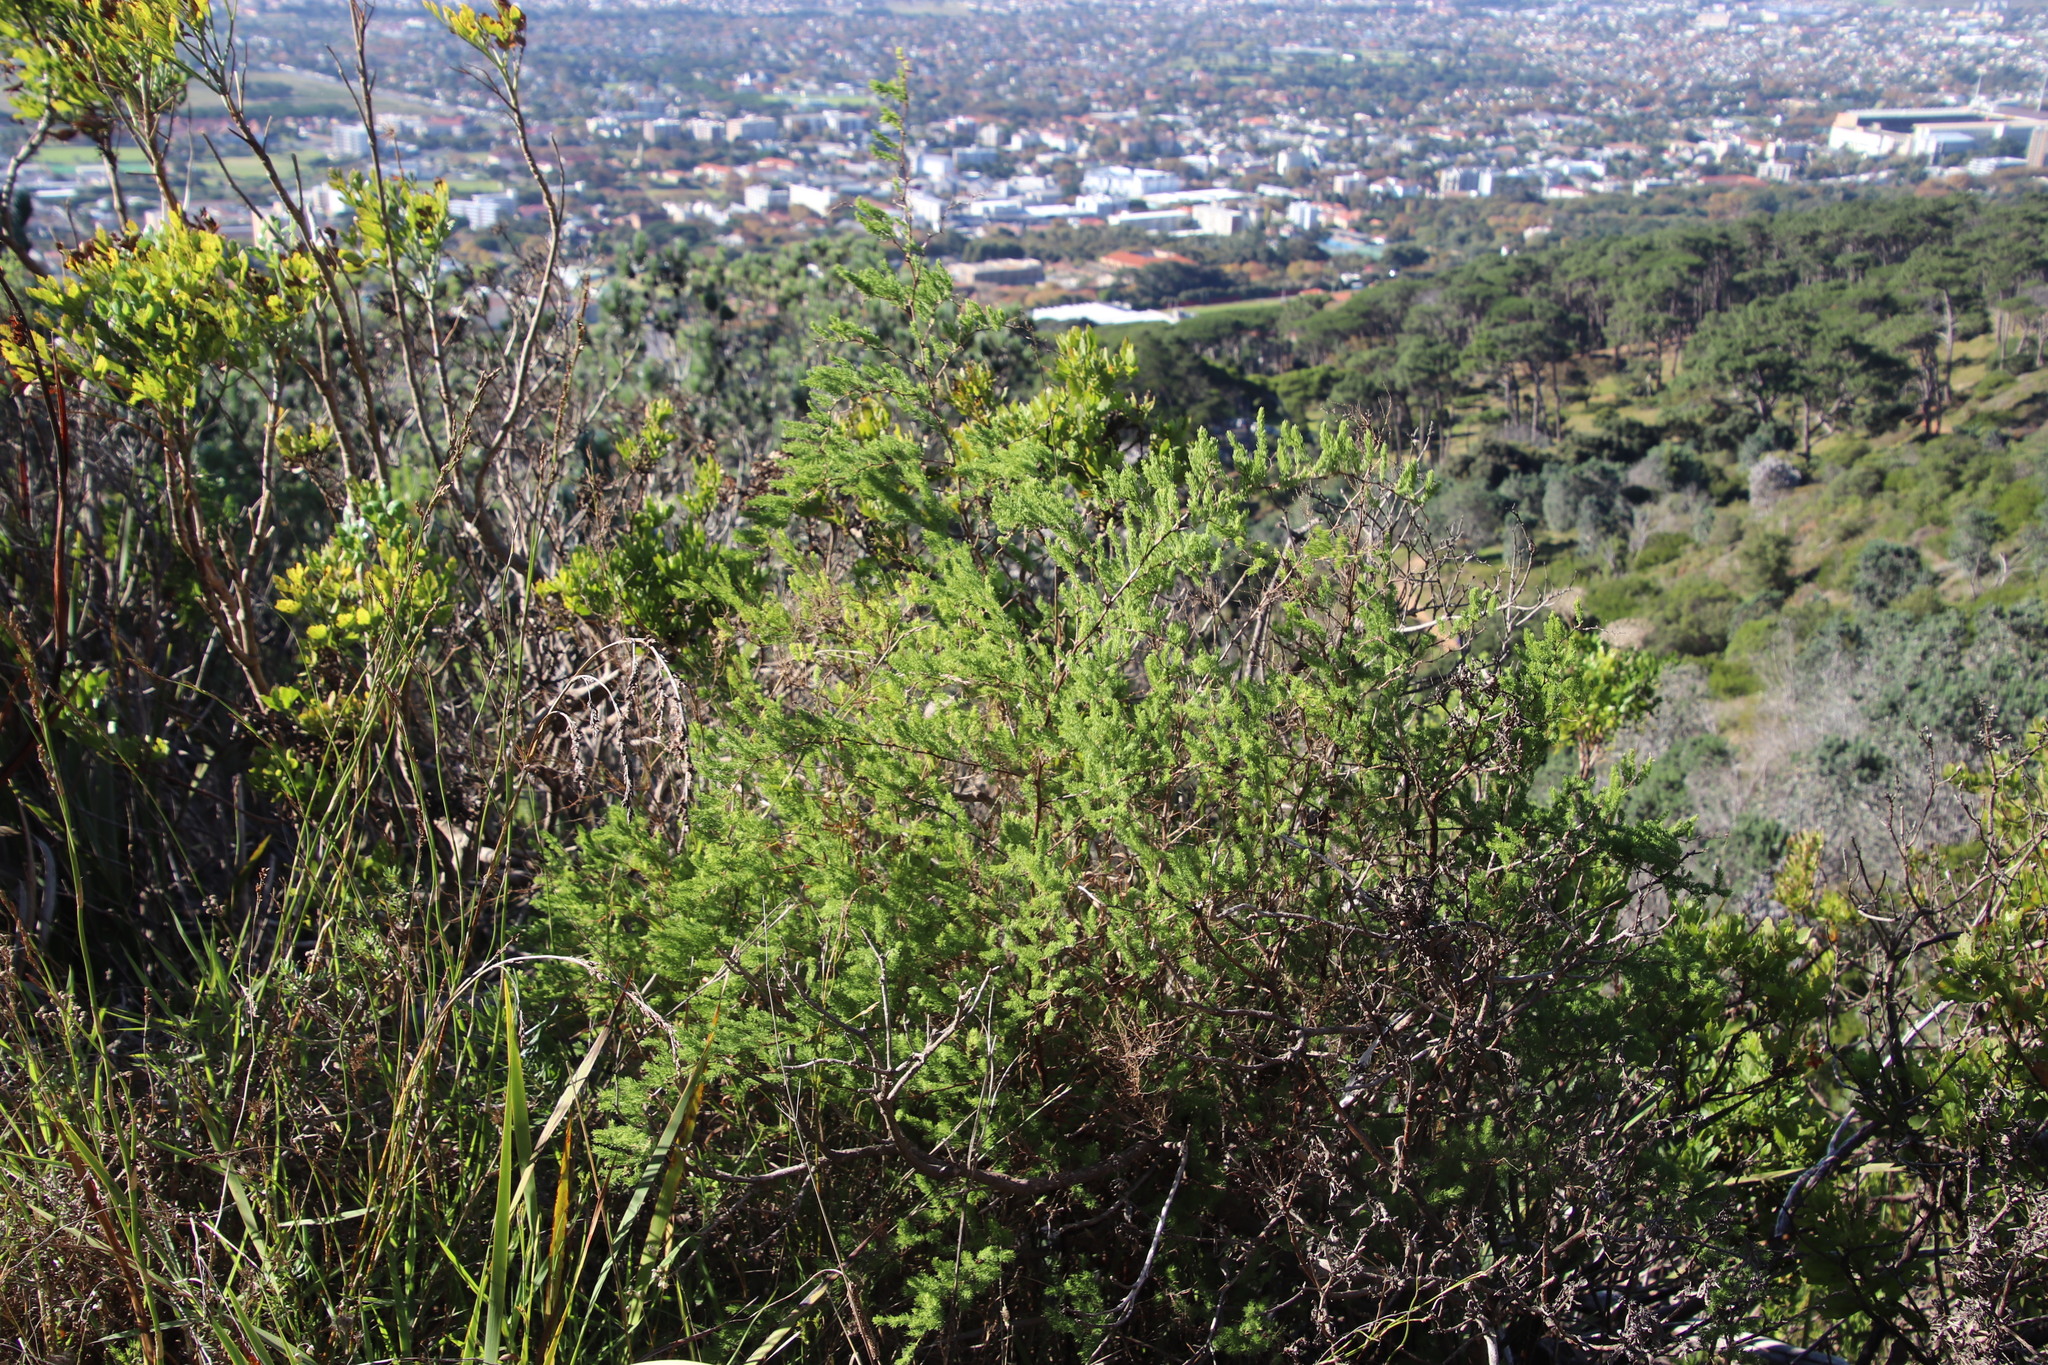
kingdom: Plantae
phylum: Tracheophyta
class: Liliopsida
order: Asparagales
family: Asparagaceae
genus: Asparagus
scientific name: Asparagus rubicundus
